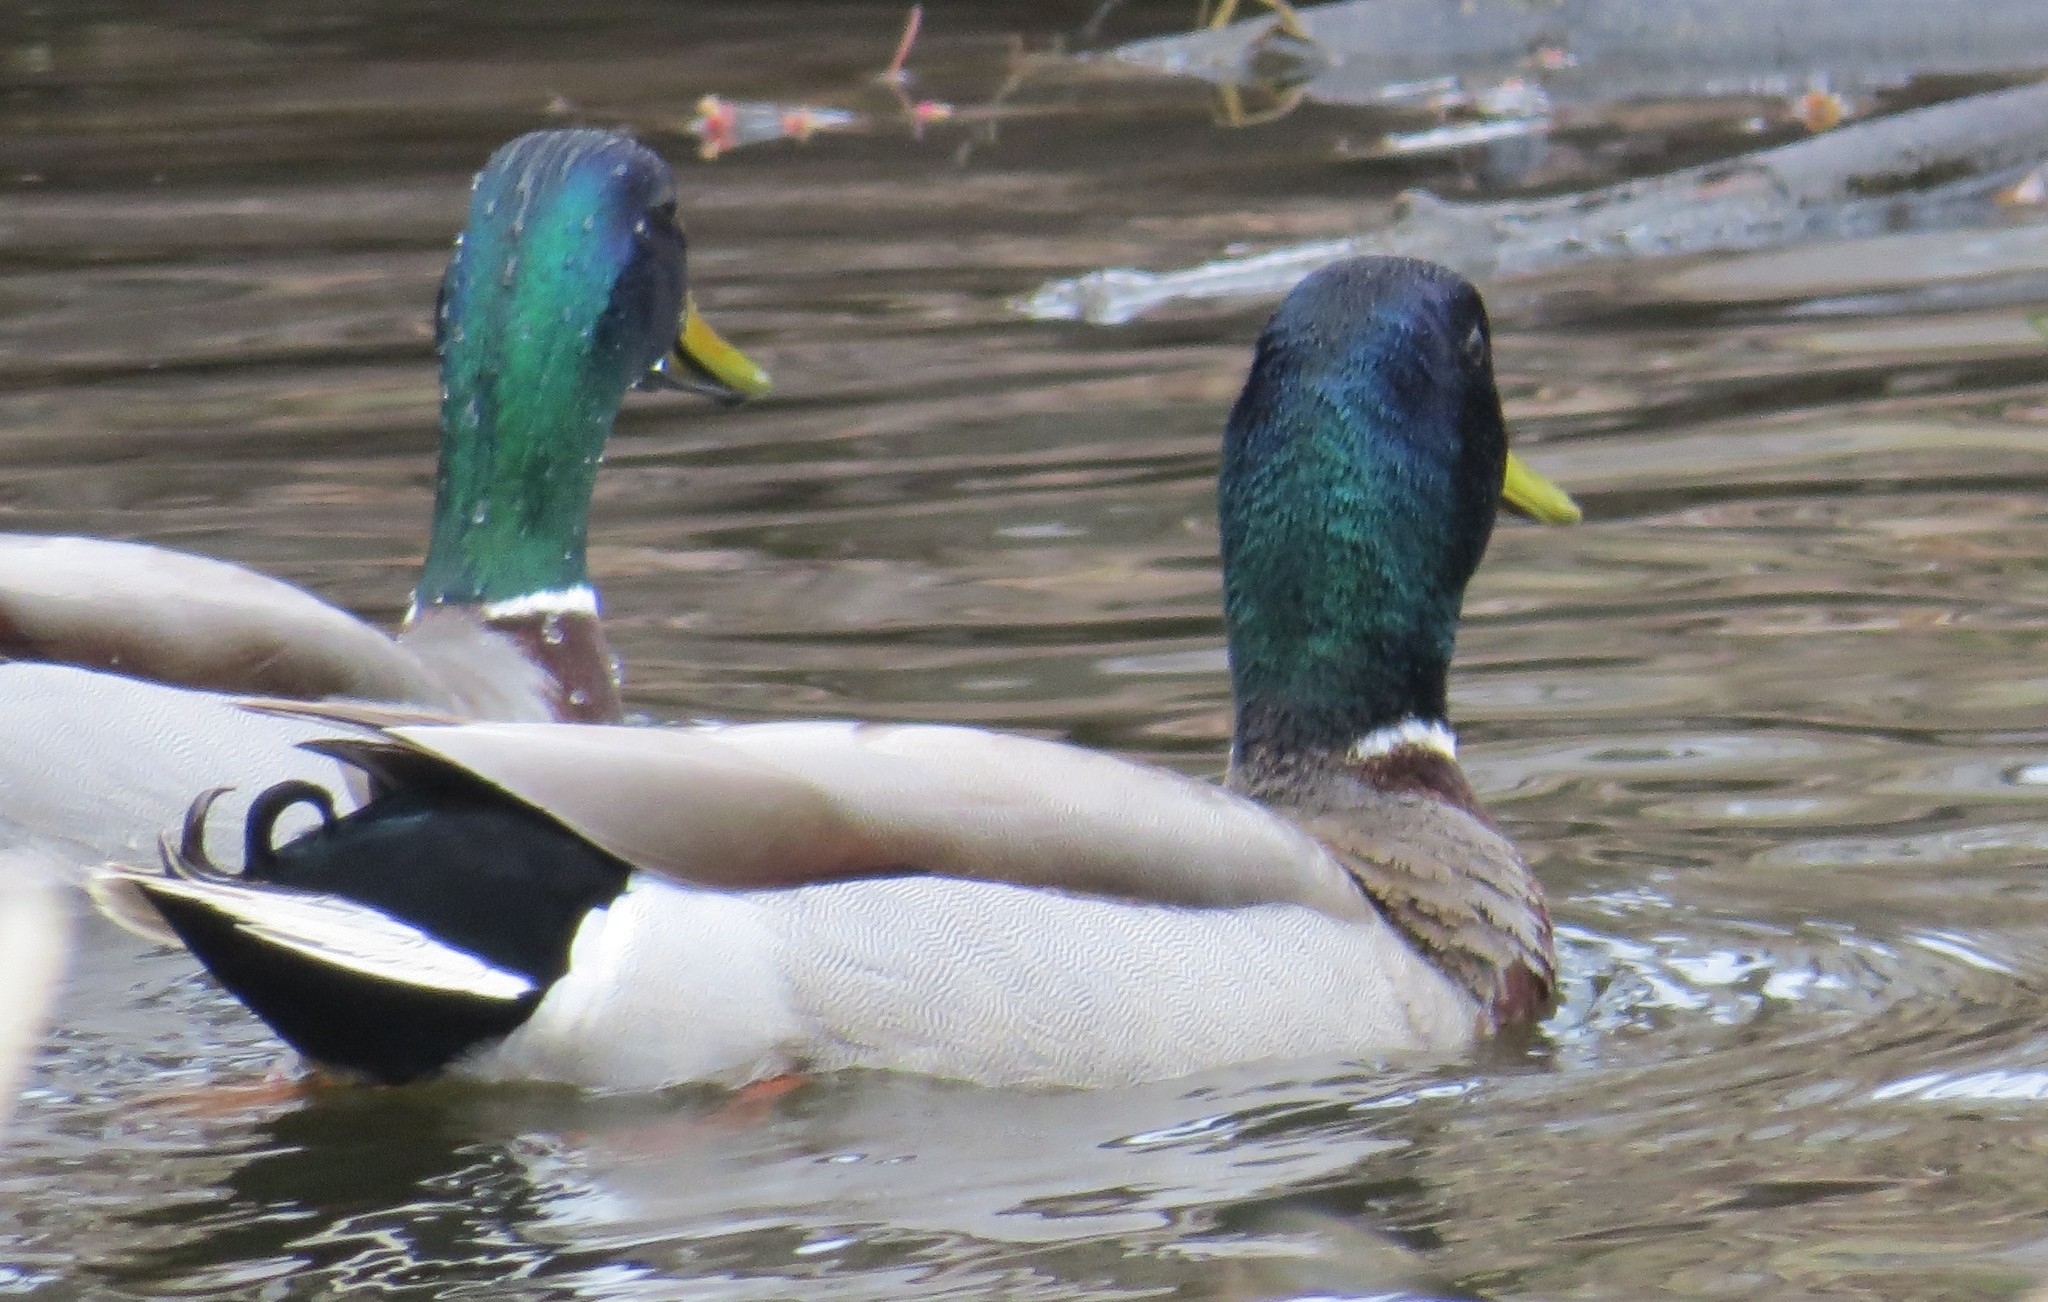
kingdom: Animalia
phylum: Chordata
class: Aves
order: Anseriformes
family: Anatidae
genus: Anas
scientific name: Anas platyrhynchos
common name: Mallard
